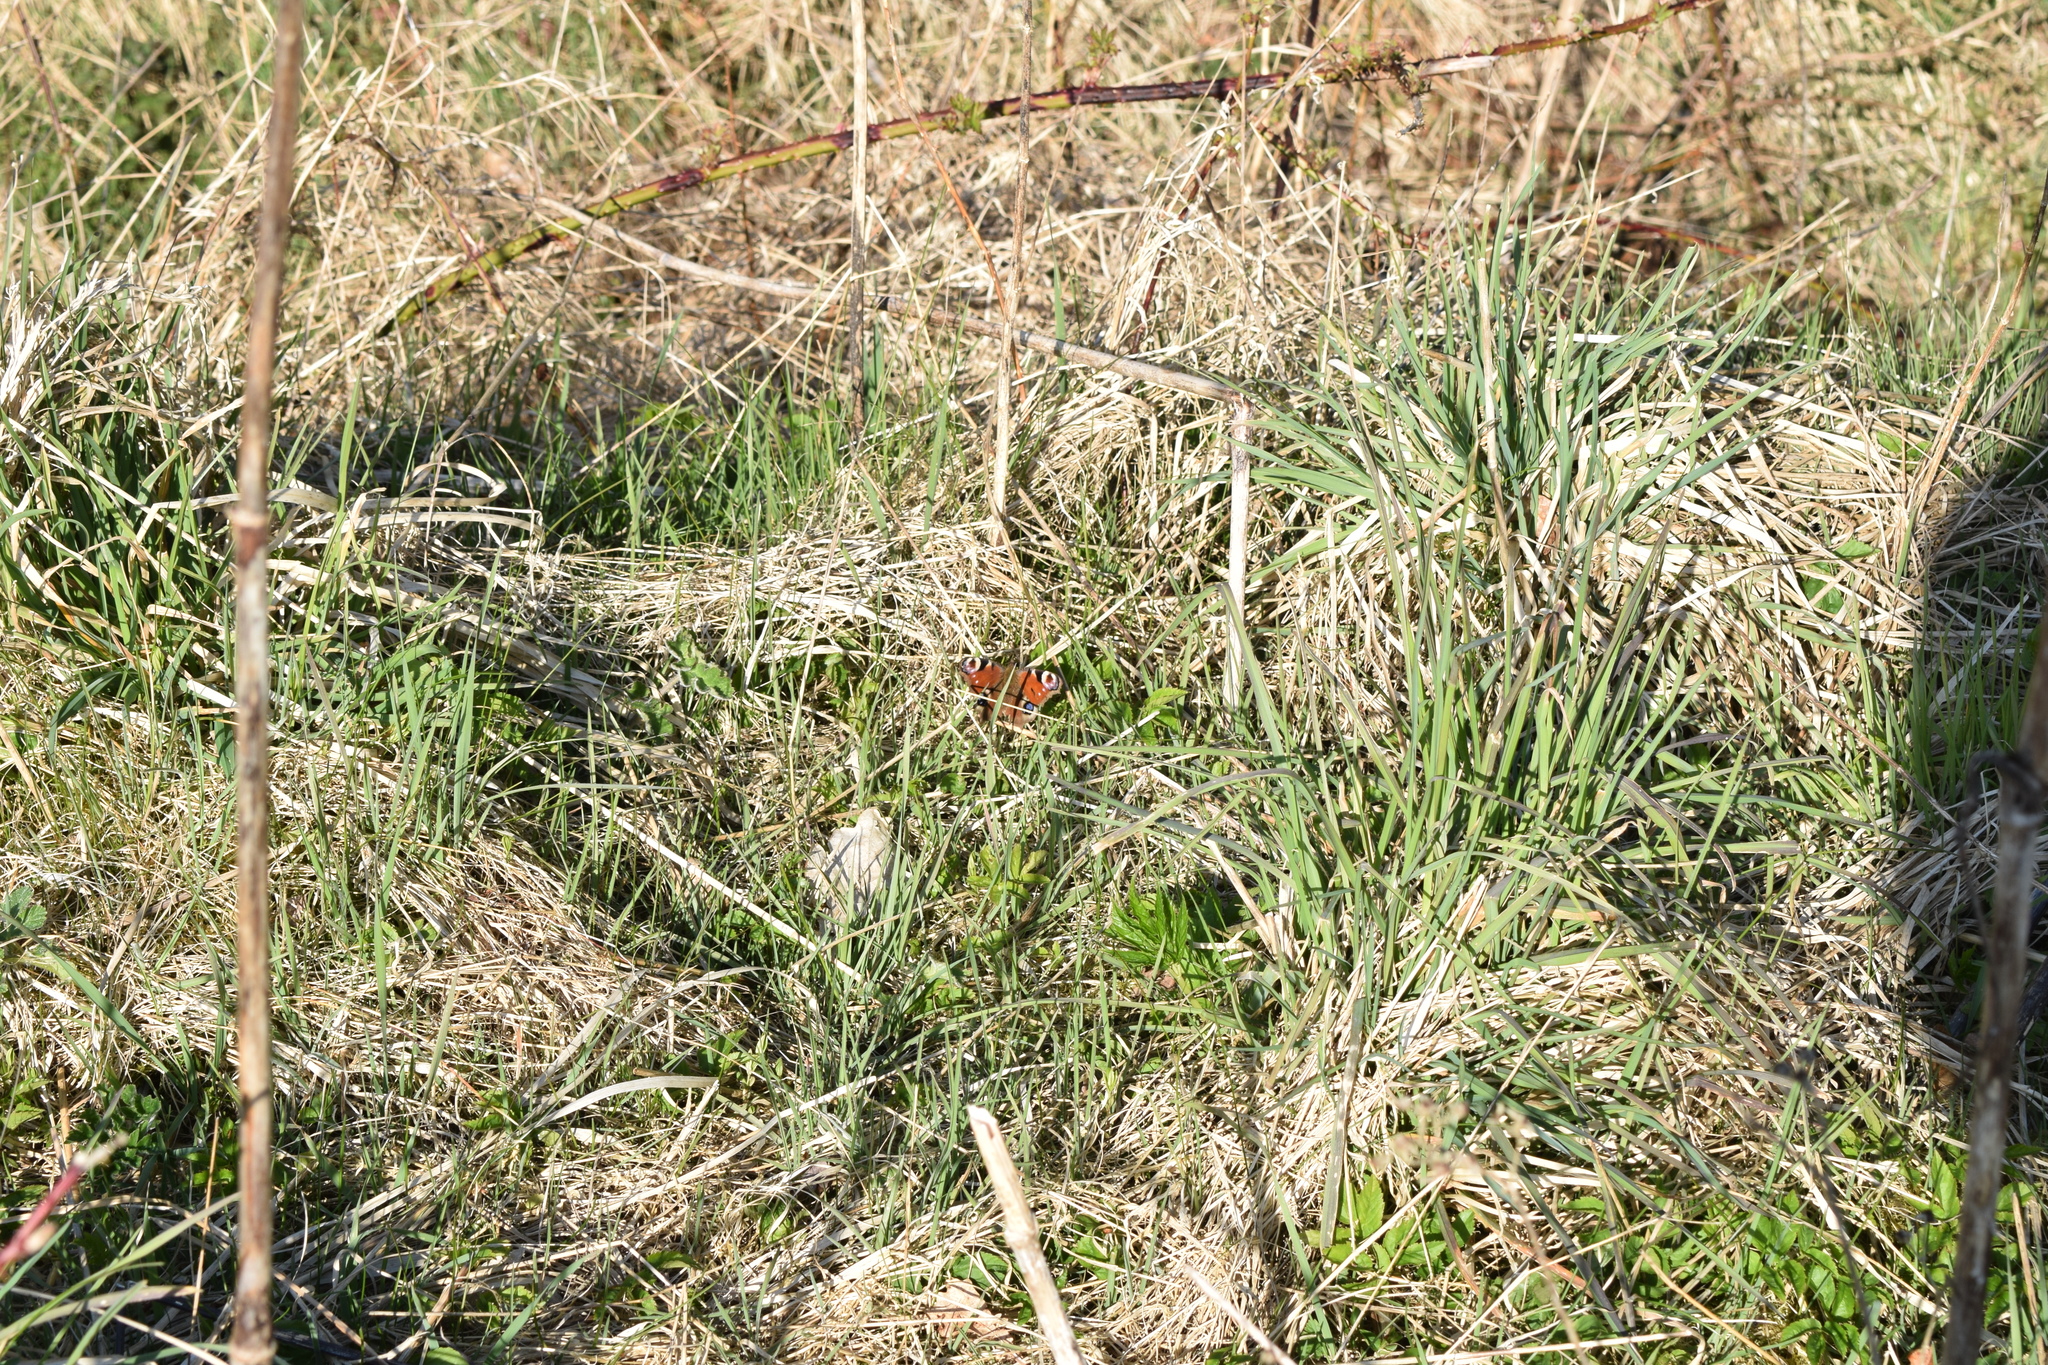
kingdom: Animalia
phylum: Arthropoda
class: Insecta
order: Lepidoptera
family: Nymphalidae
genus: Aglais
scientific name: Aglais io
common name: Peacock
